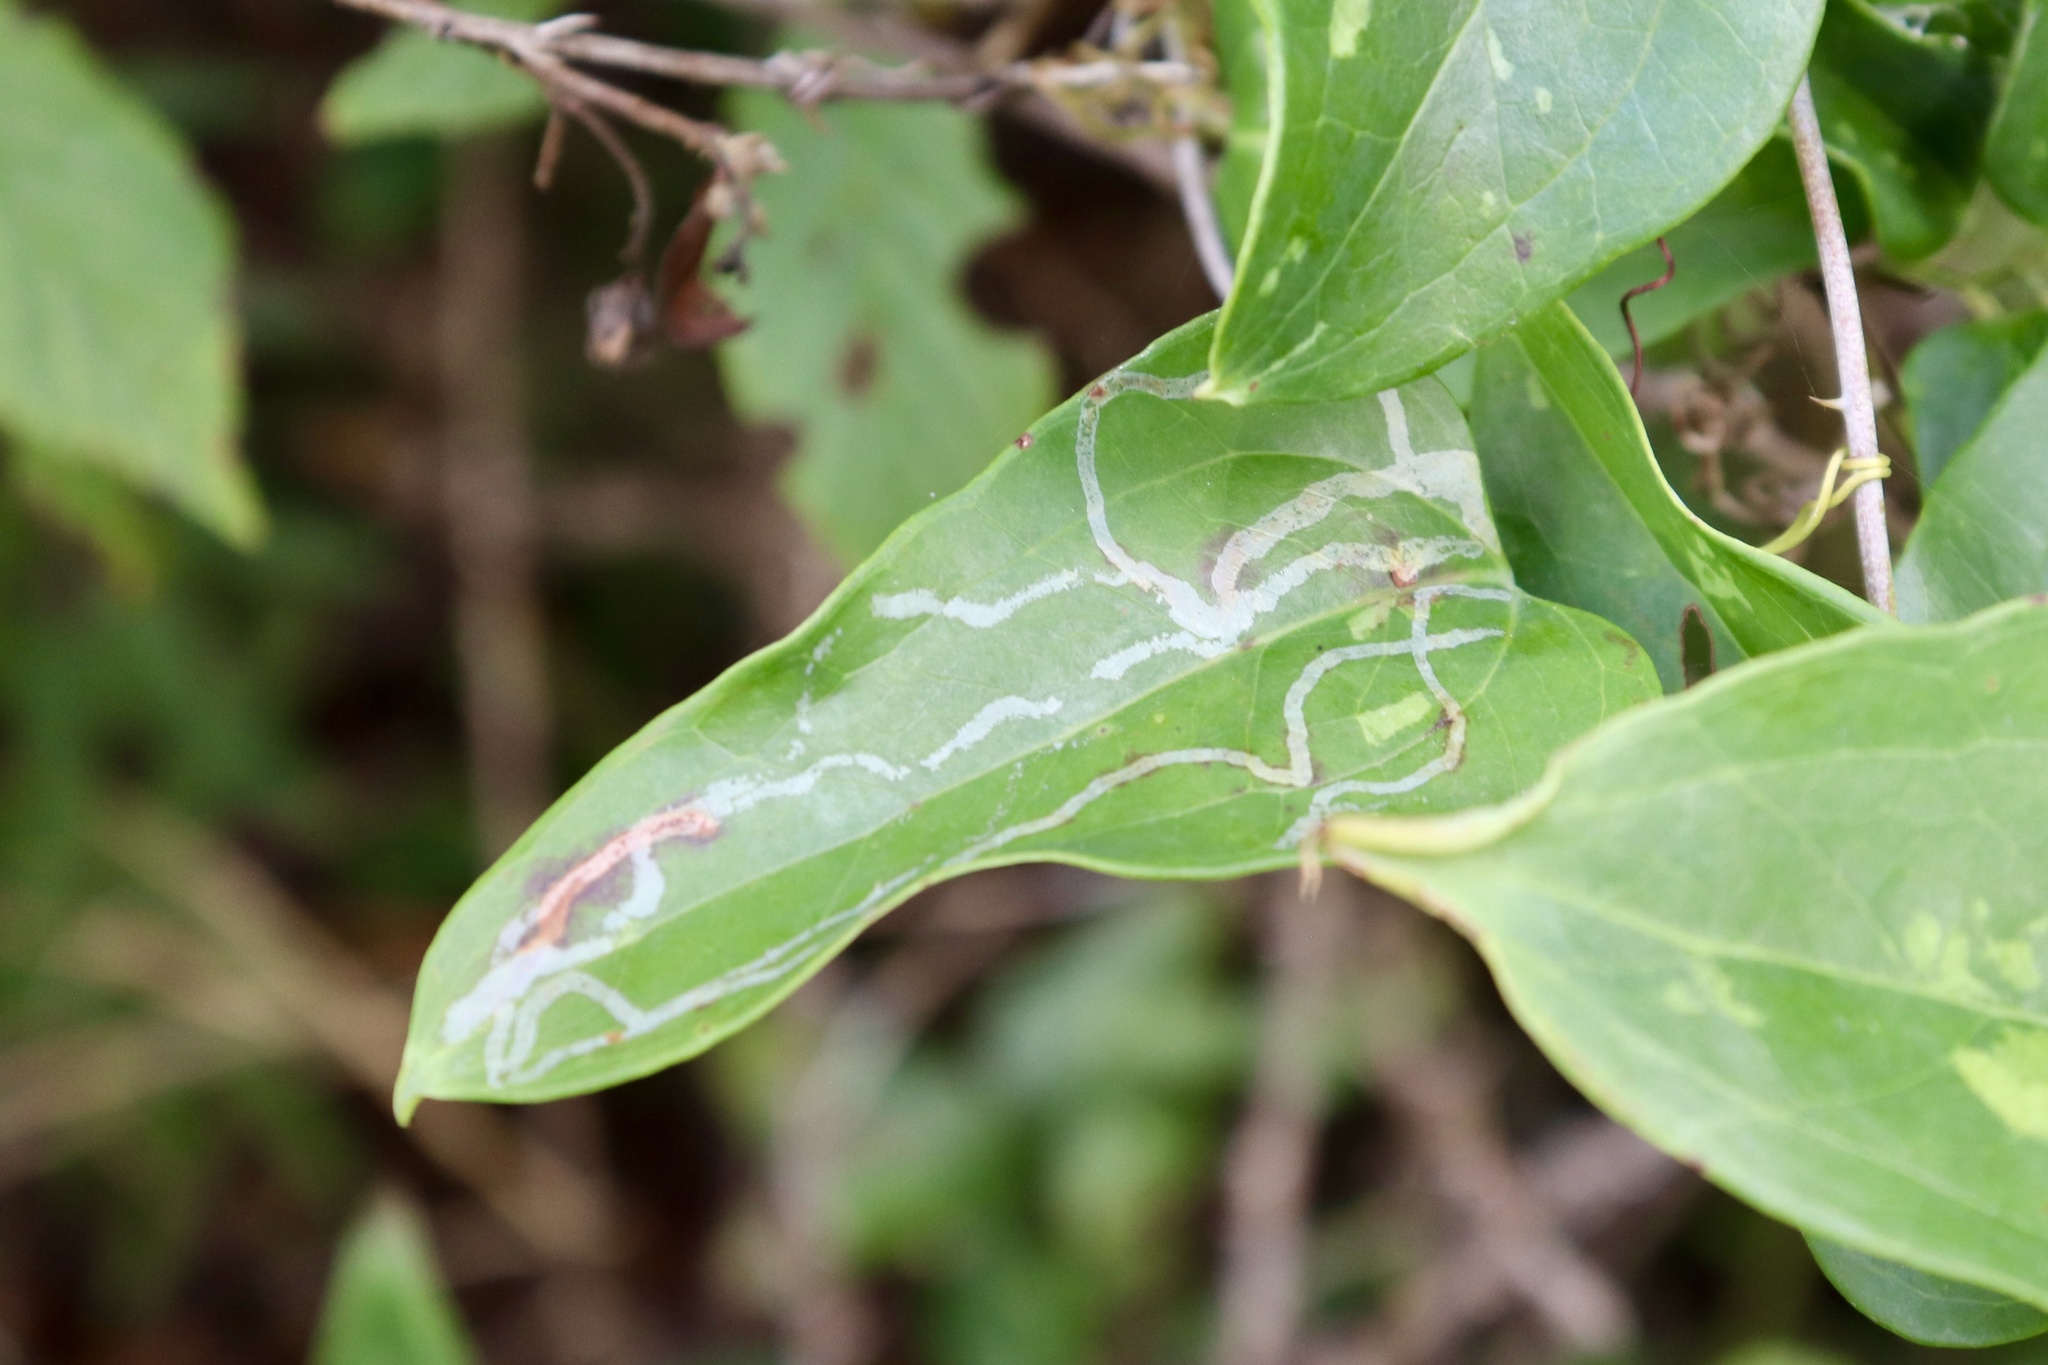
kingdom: Animalia
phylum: Arthropoda
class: Insecta
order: Diptera
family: Agromyzidae
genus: Liriomyza
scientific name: Liriomyza schmidti
